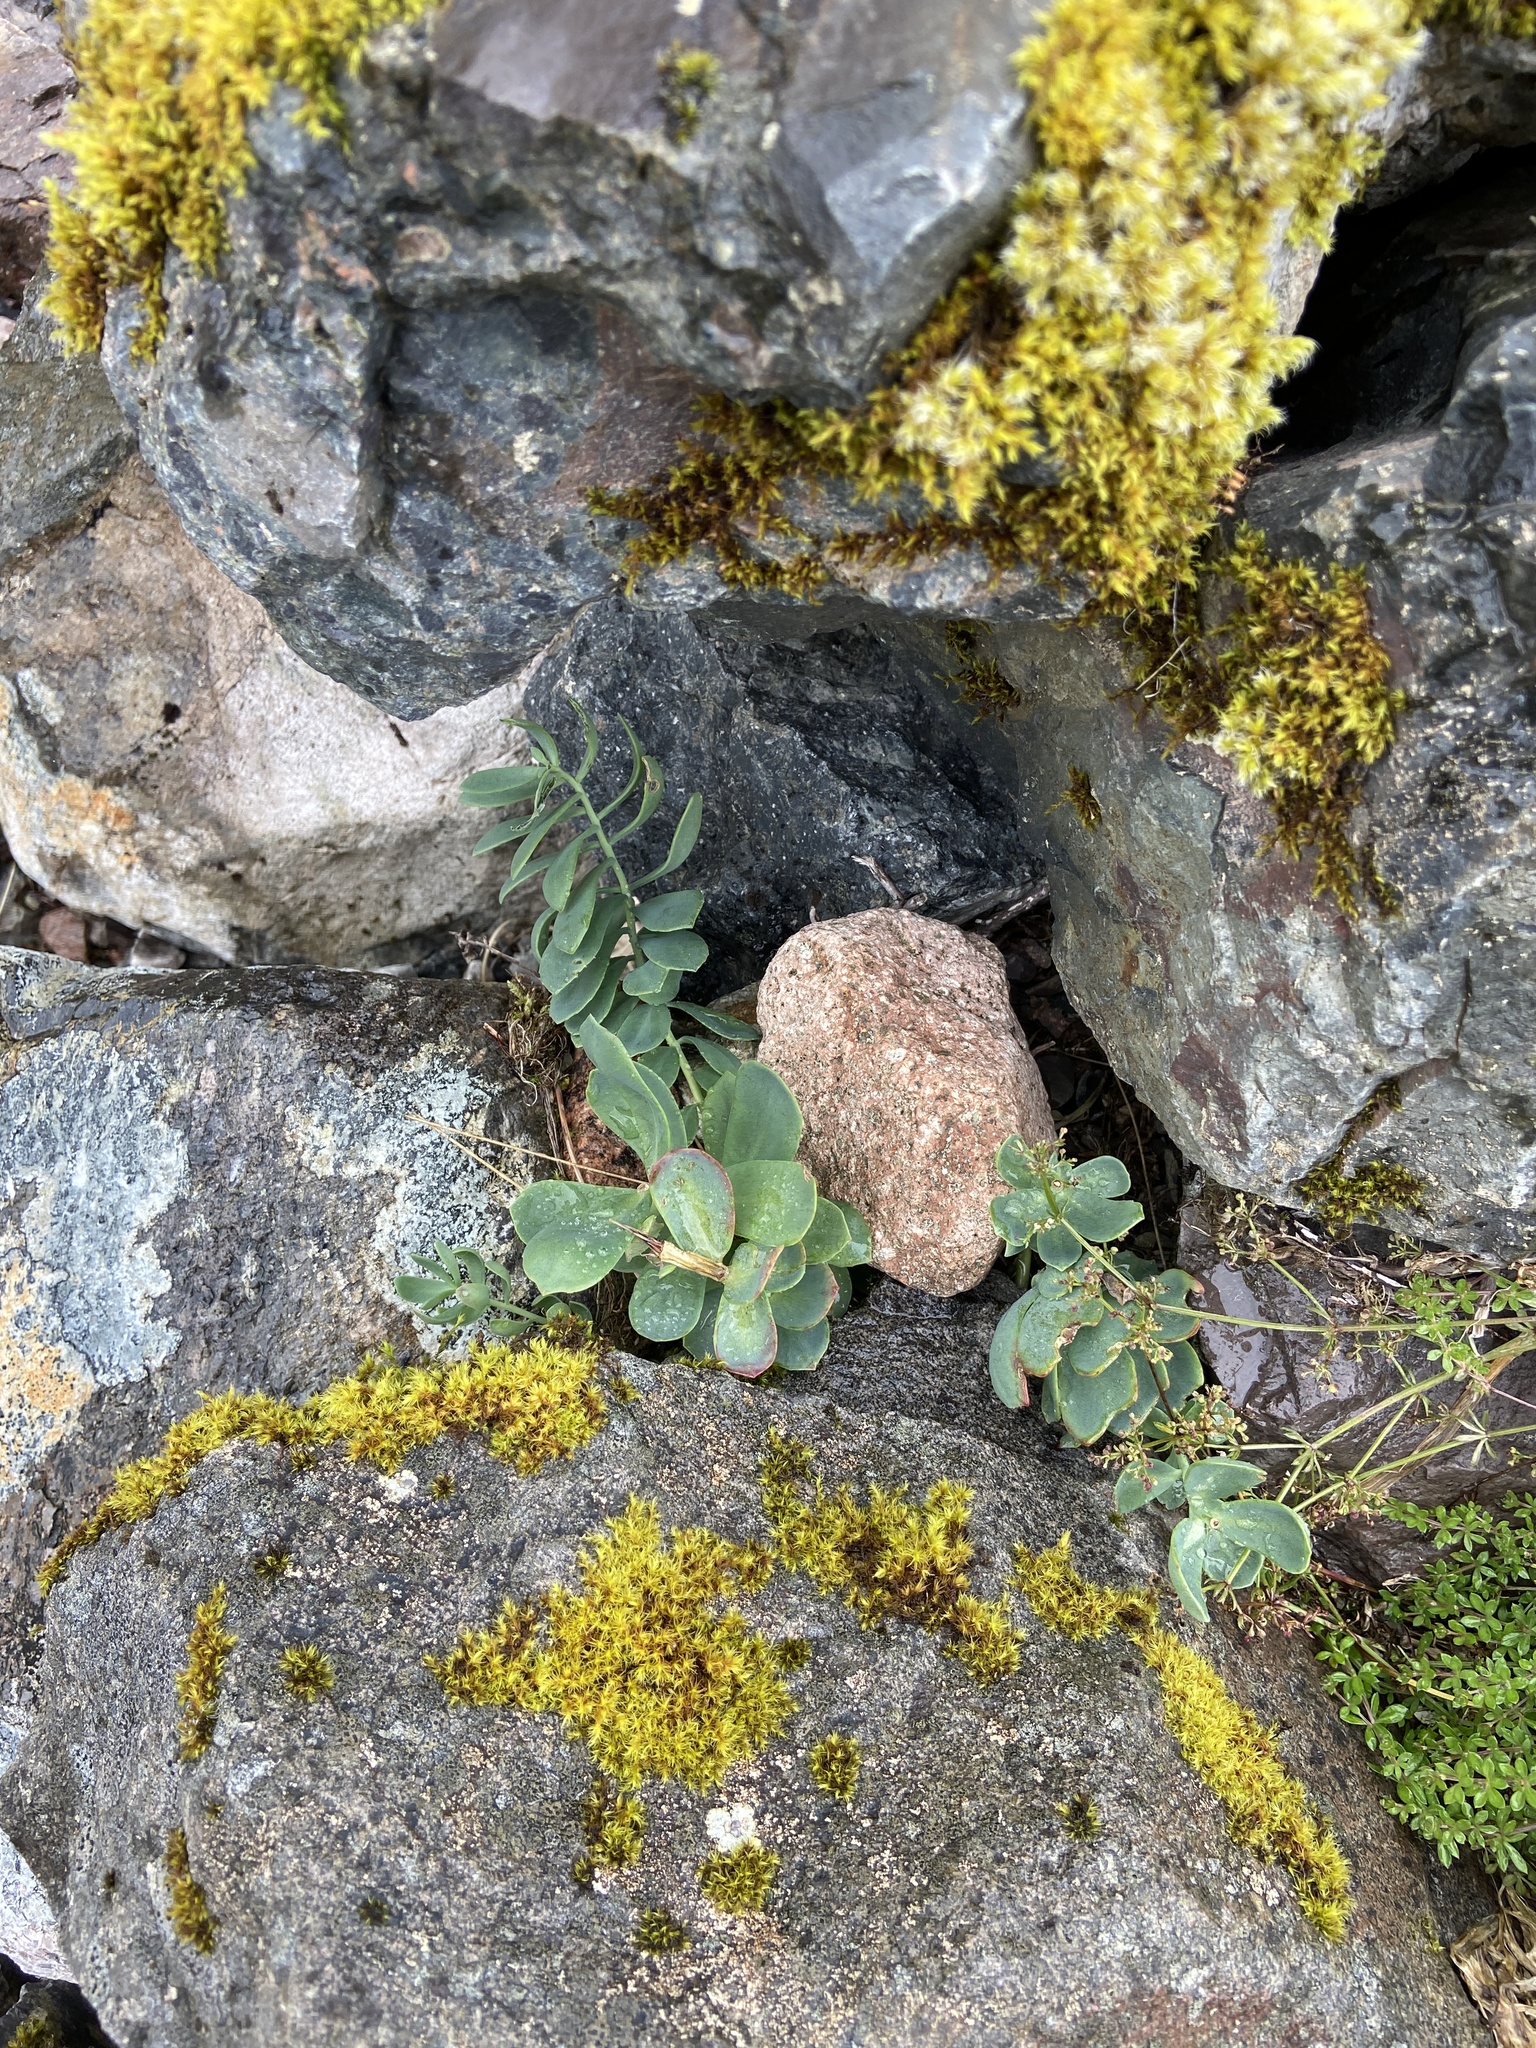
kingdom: Plantae
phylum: Tracheophyta
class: Magnoliopsida
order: Saxifragales
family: Crassulaceae
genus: Rhodiola
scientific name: Rhodiola rosea
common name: Roseroot
